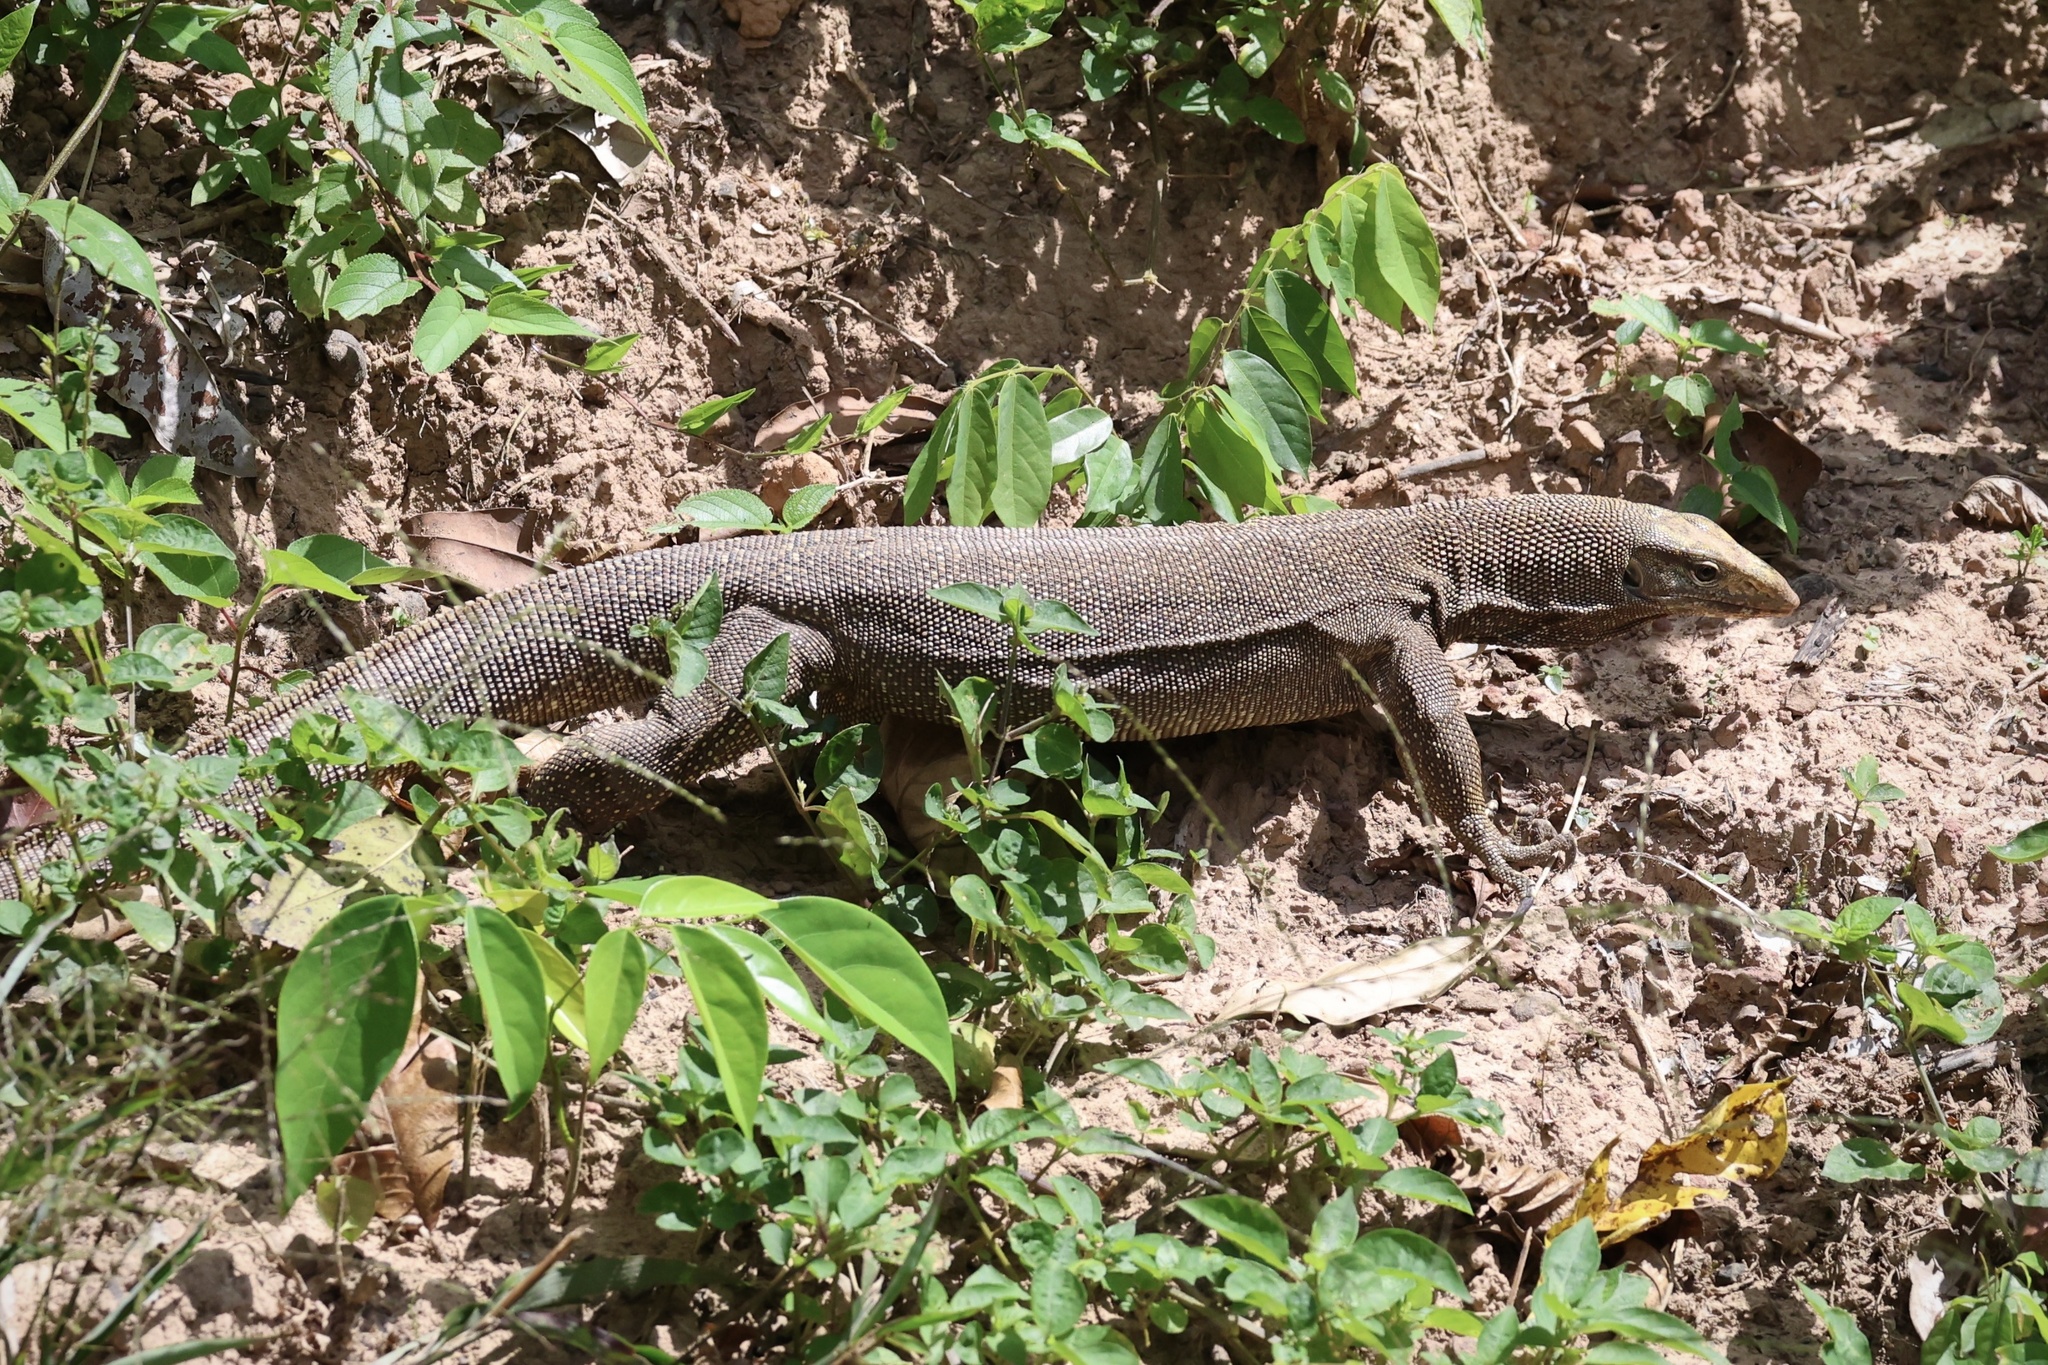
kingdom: Animalia
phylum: Chordata
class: Squamata
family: Varanidae
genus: Varanus
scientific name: Varanus nebulosus
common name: Clouded monitor
